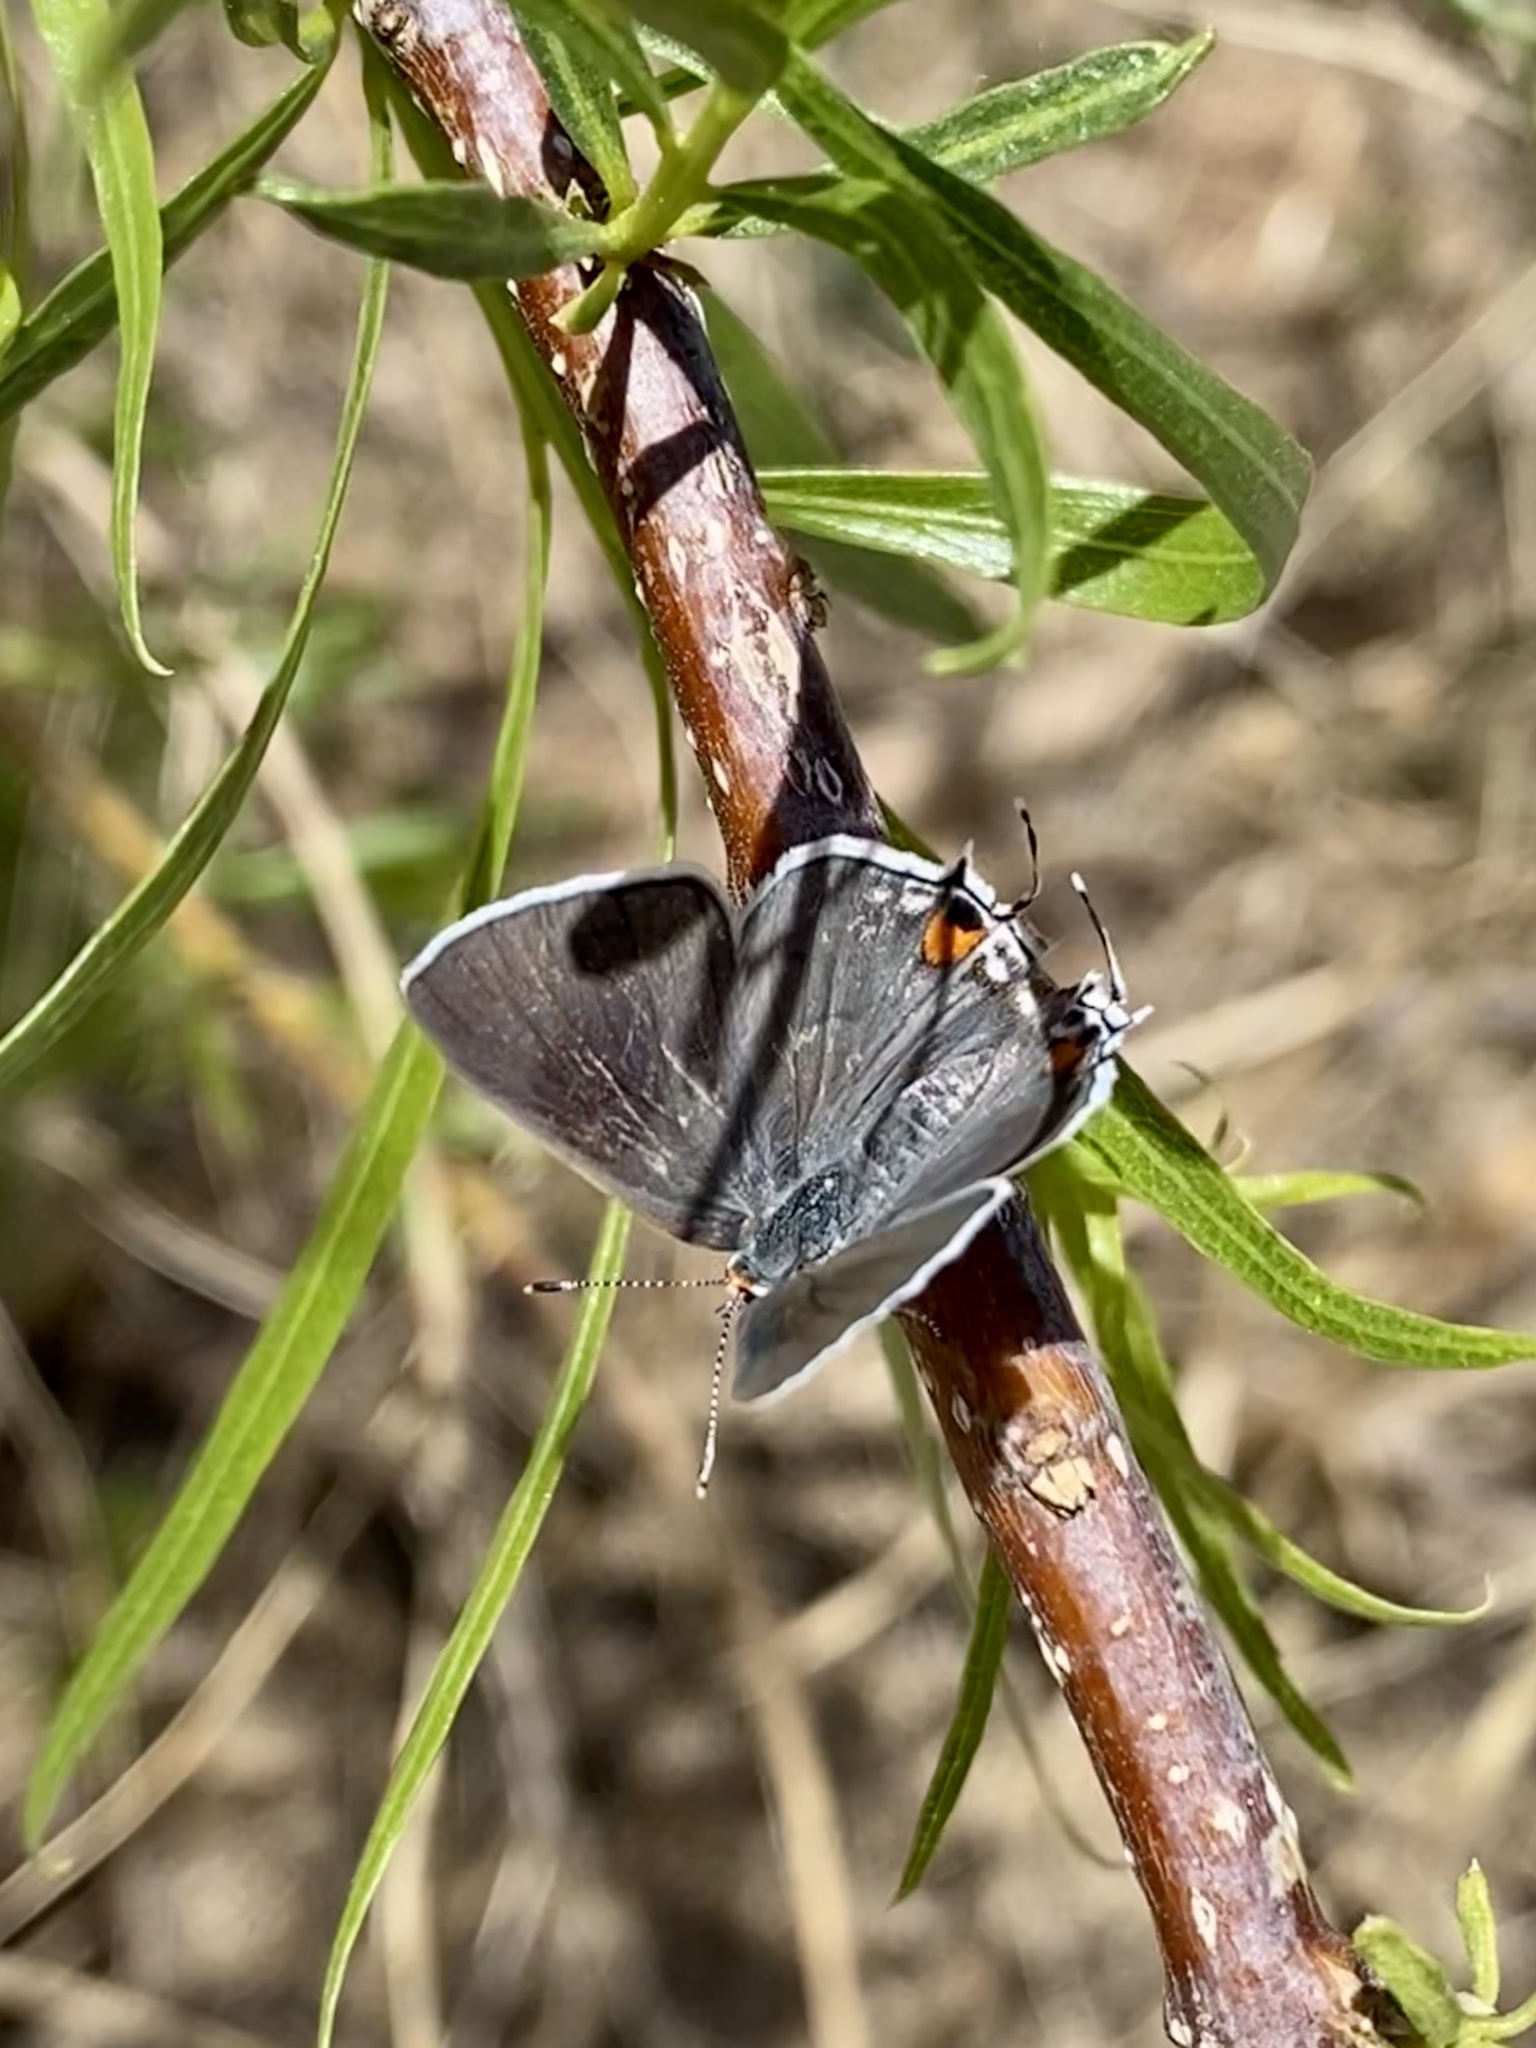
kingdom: Animalia
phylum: Arthropoda
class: Insecta
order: Lepidoptera
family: Lycaenidae
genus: Strymon
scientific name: Strymon melinus
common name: Gray hairstreak
